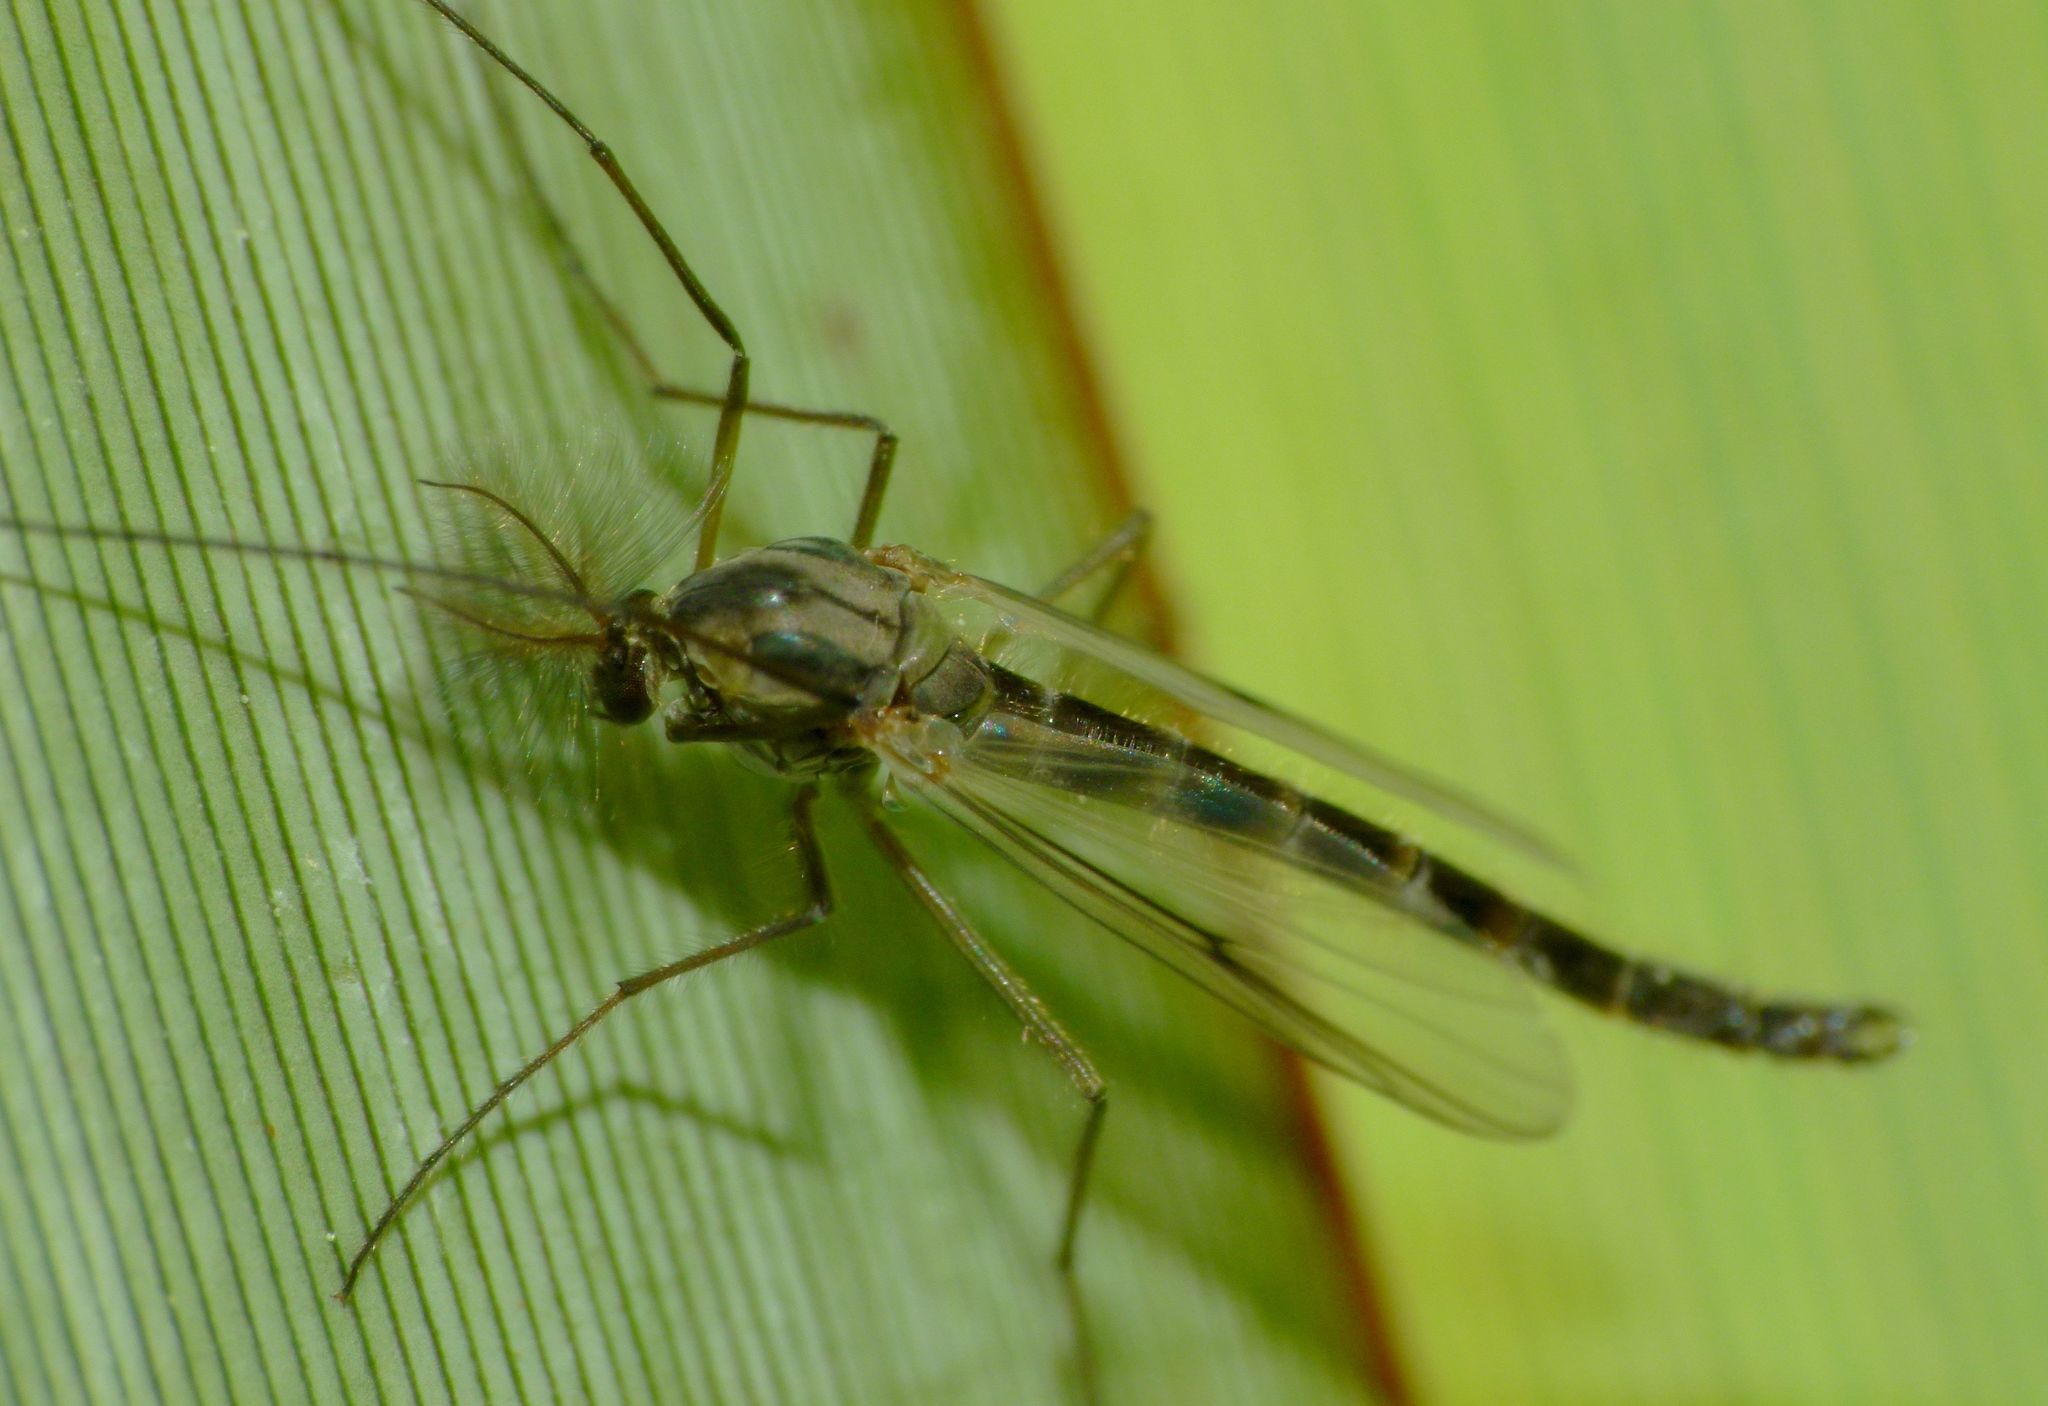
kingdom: Animalia
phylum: Arthropoda
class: Insecta
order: Diptera
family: Chironomidae
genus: Chironomus
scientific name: Chironomus zealandicus
